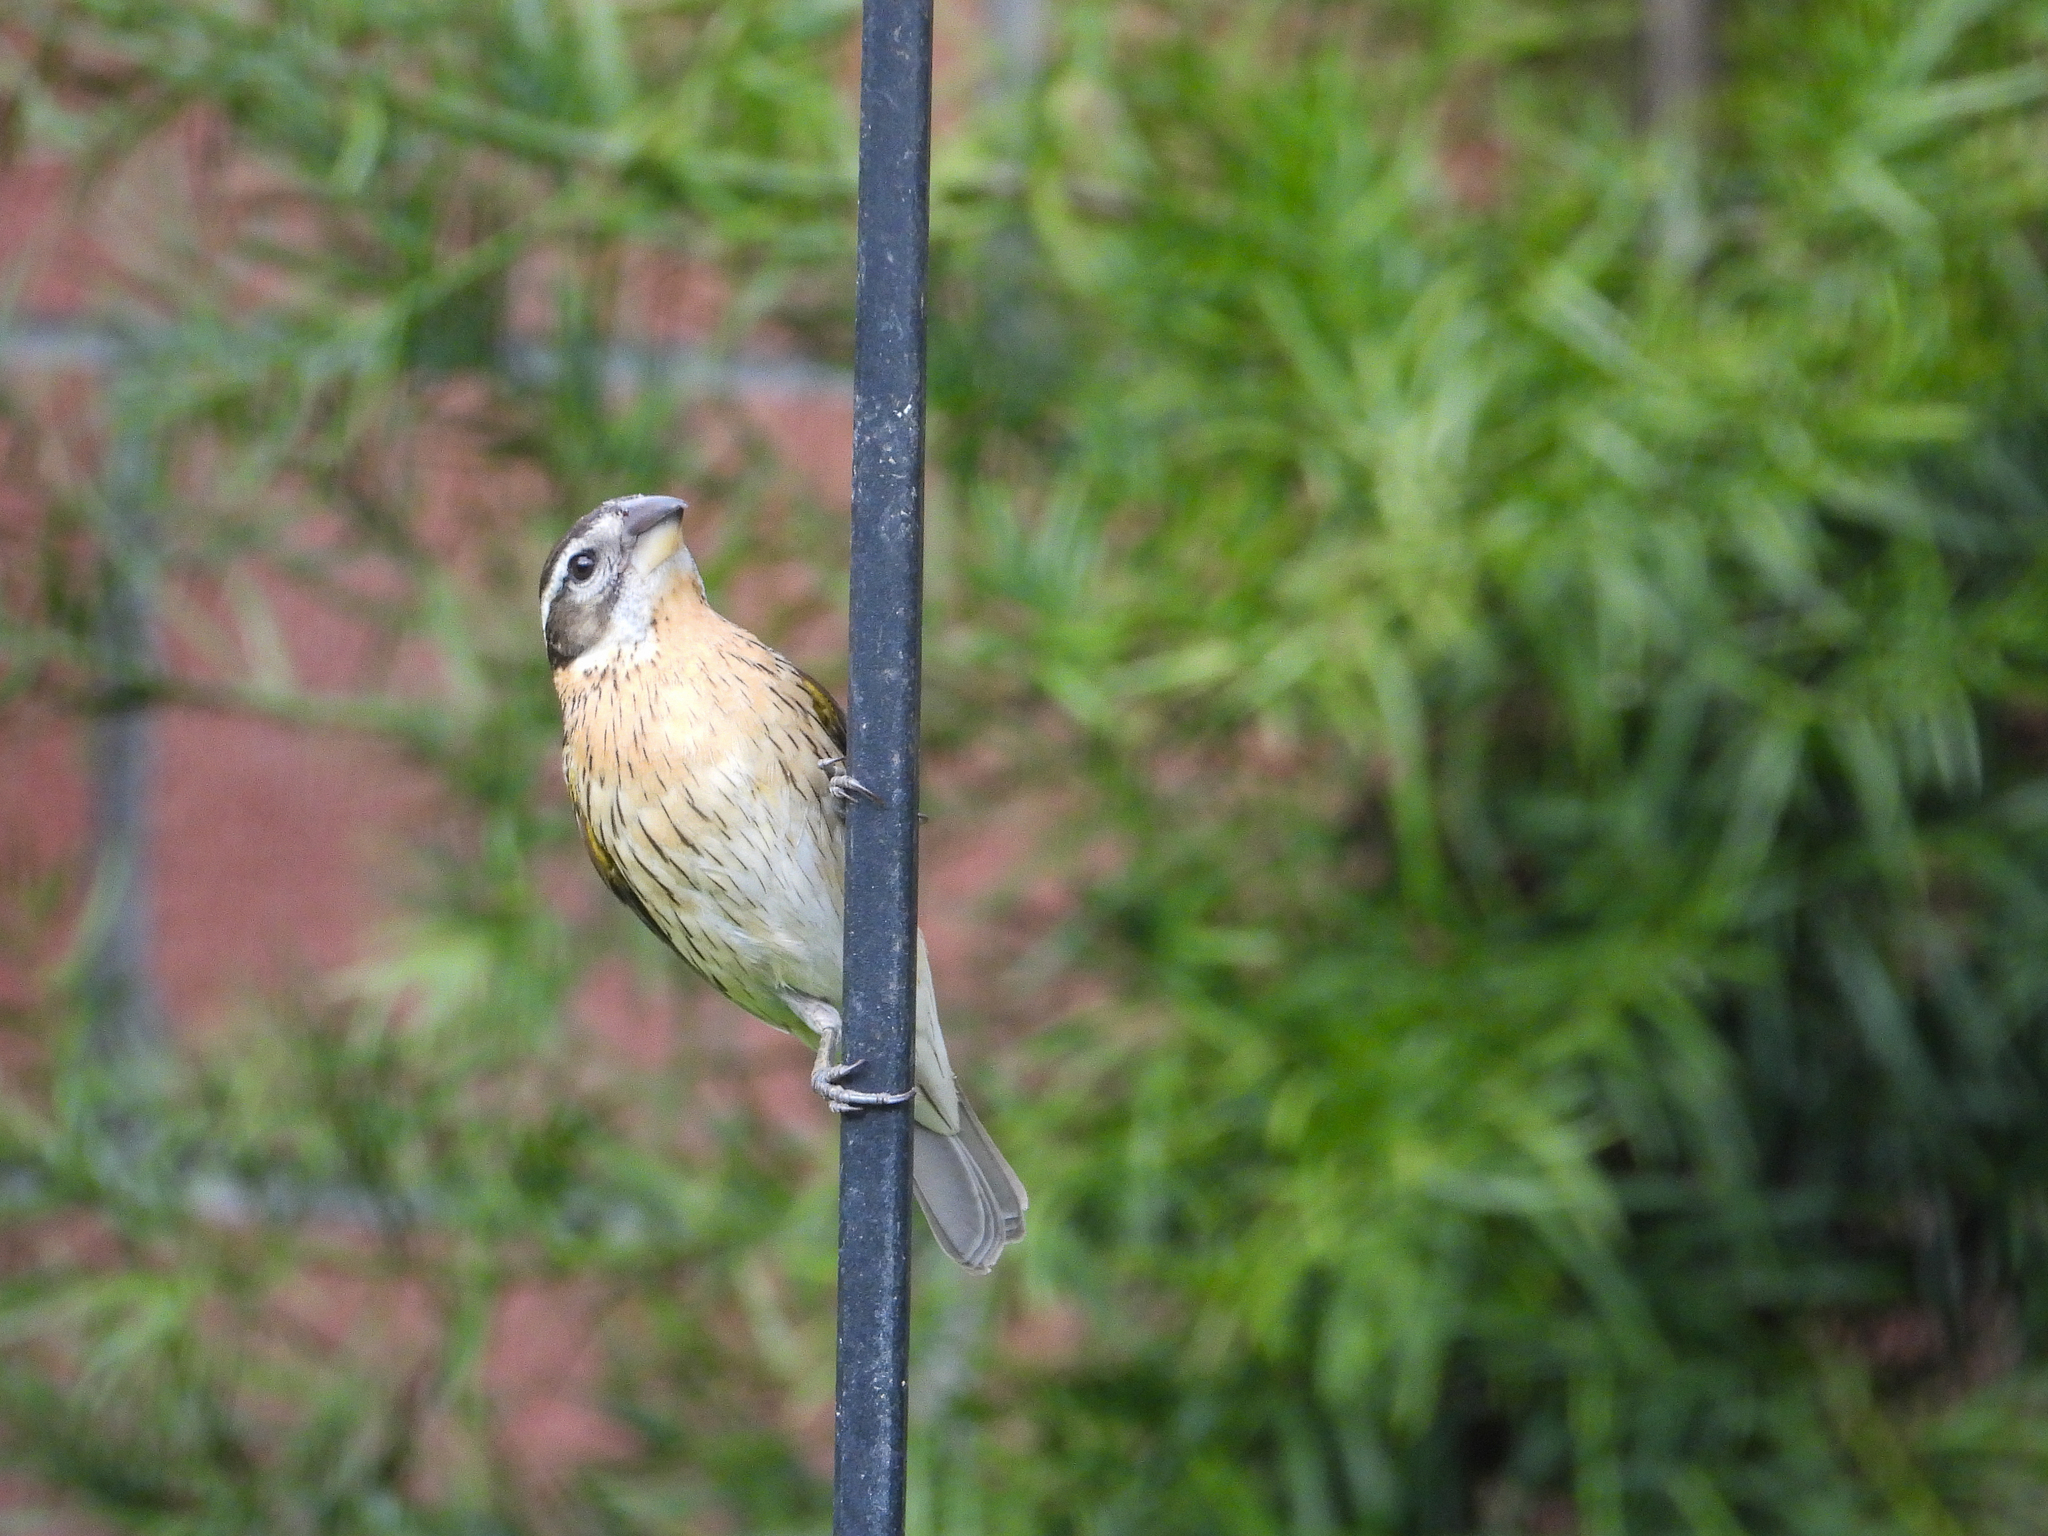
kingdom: Animalia
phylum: Chordata
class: Aves
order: Passeriformes
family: Cardinalidae
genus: Pheucticus
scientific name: Pheucticus melanocephalus
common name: Black-headed grosbeak
